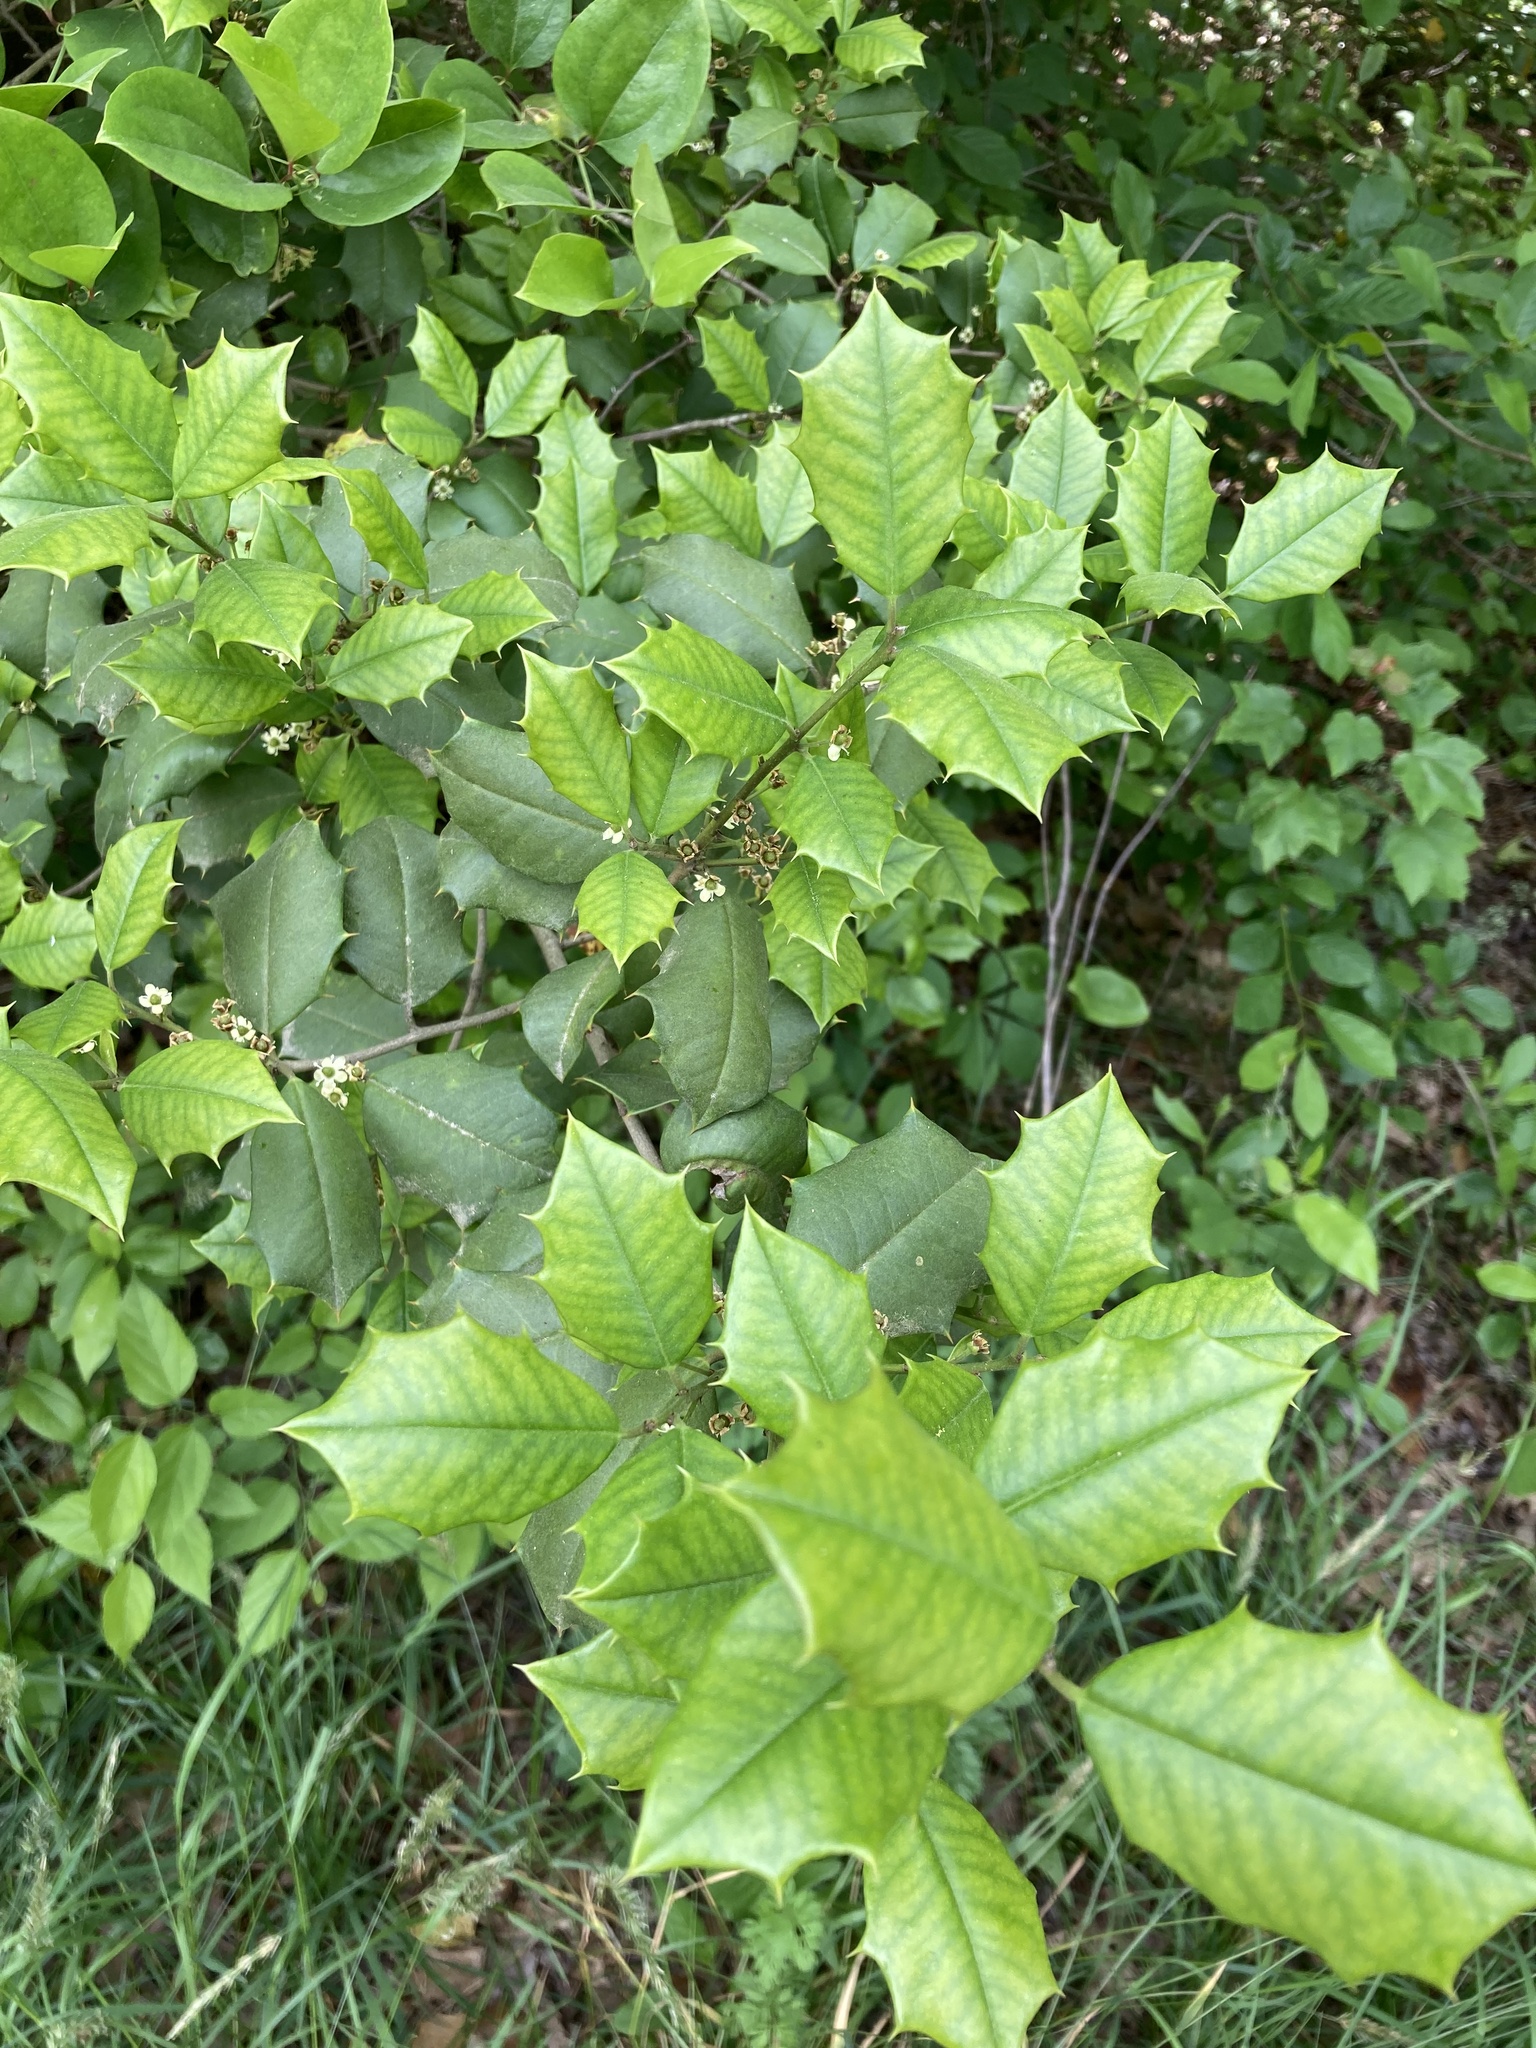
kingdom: Plantae
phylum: Tracheophyta
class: Magnoliopsida
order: Aquifoliales
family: Aquifoliaceae
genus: Ilex
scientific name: Ilex opaca
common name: American holly
